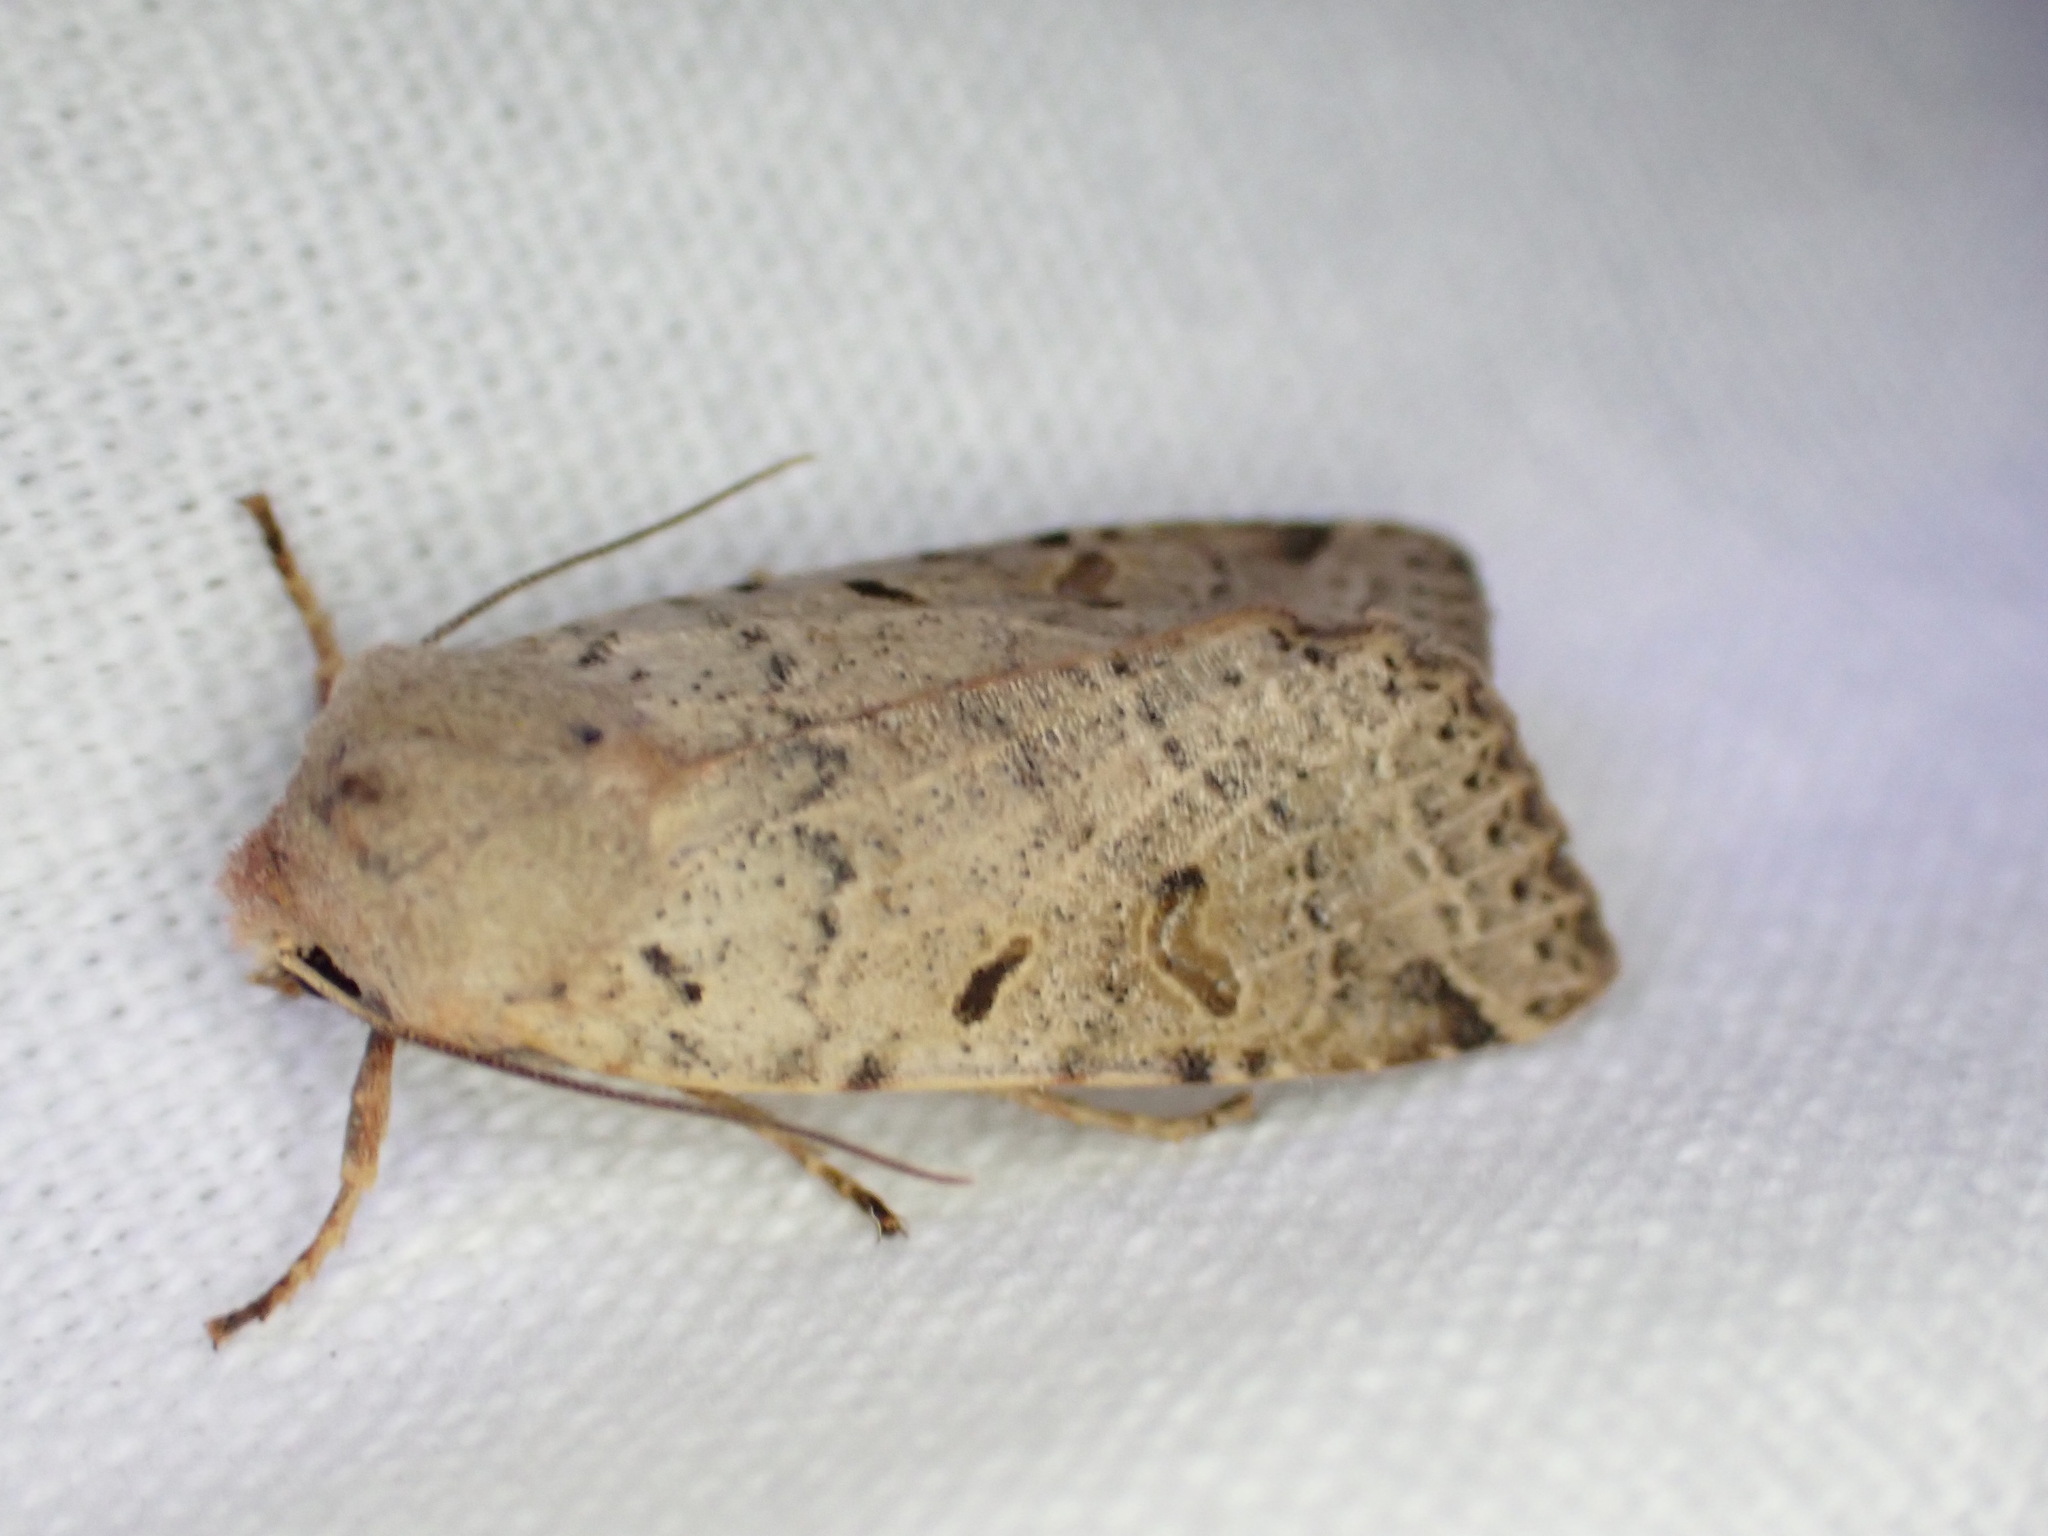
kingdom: Animalia
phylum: Arthropoda
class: Insecta
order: Lepidoptera
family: Noctuidae
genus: Agrochola
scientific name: Agrochola lychnidis
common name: Beaded chestnut
